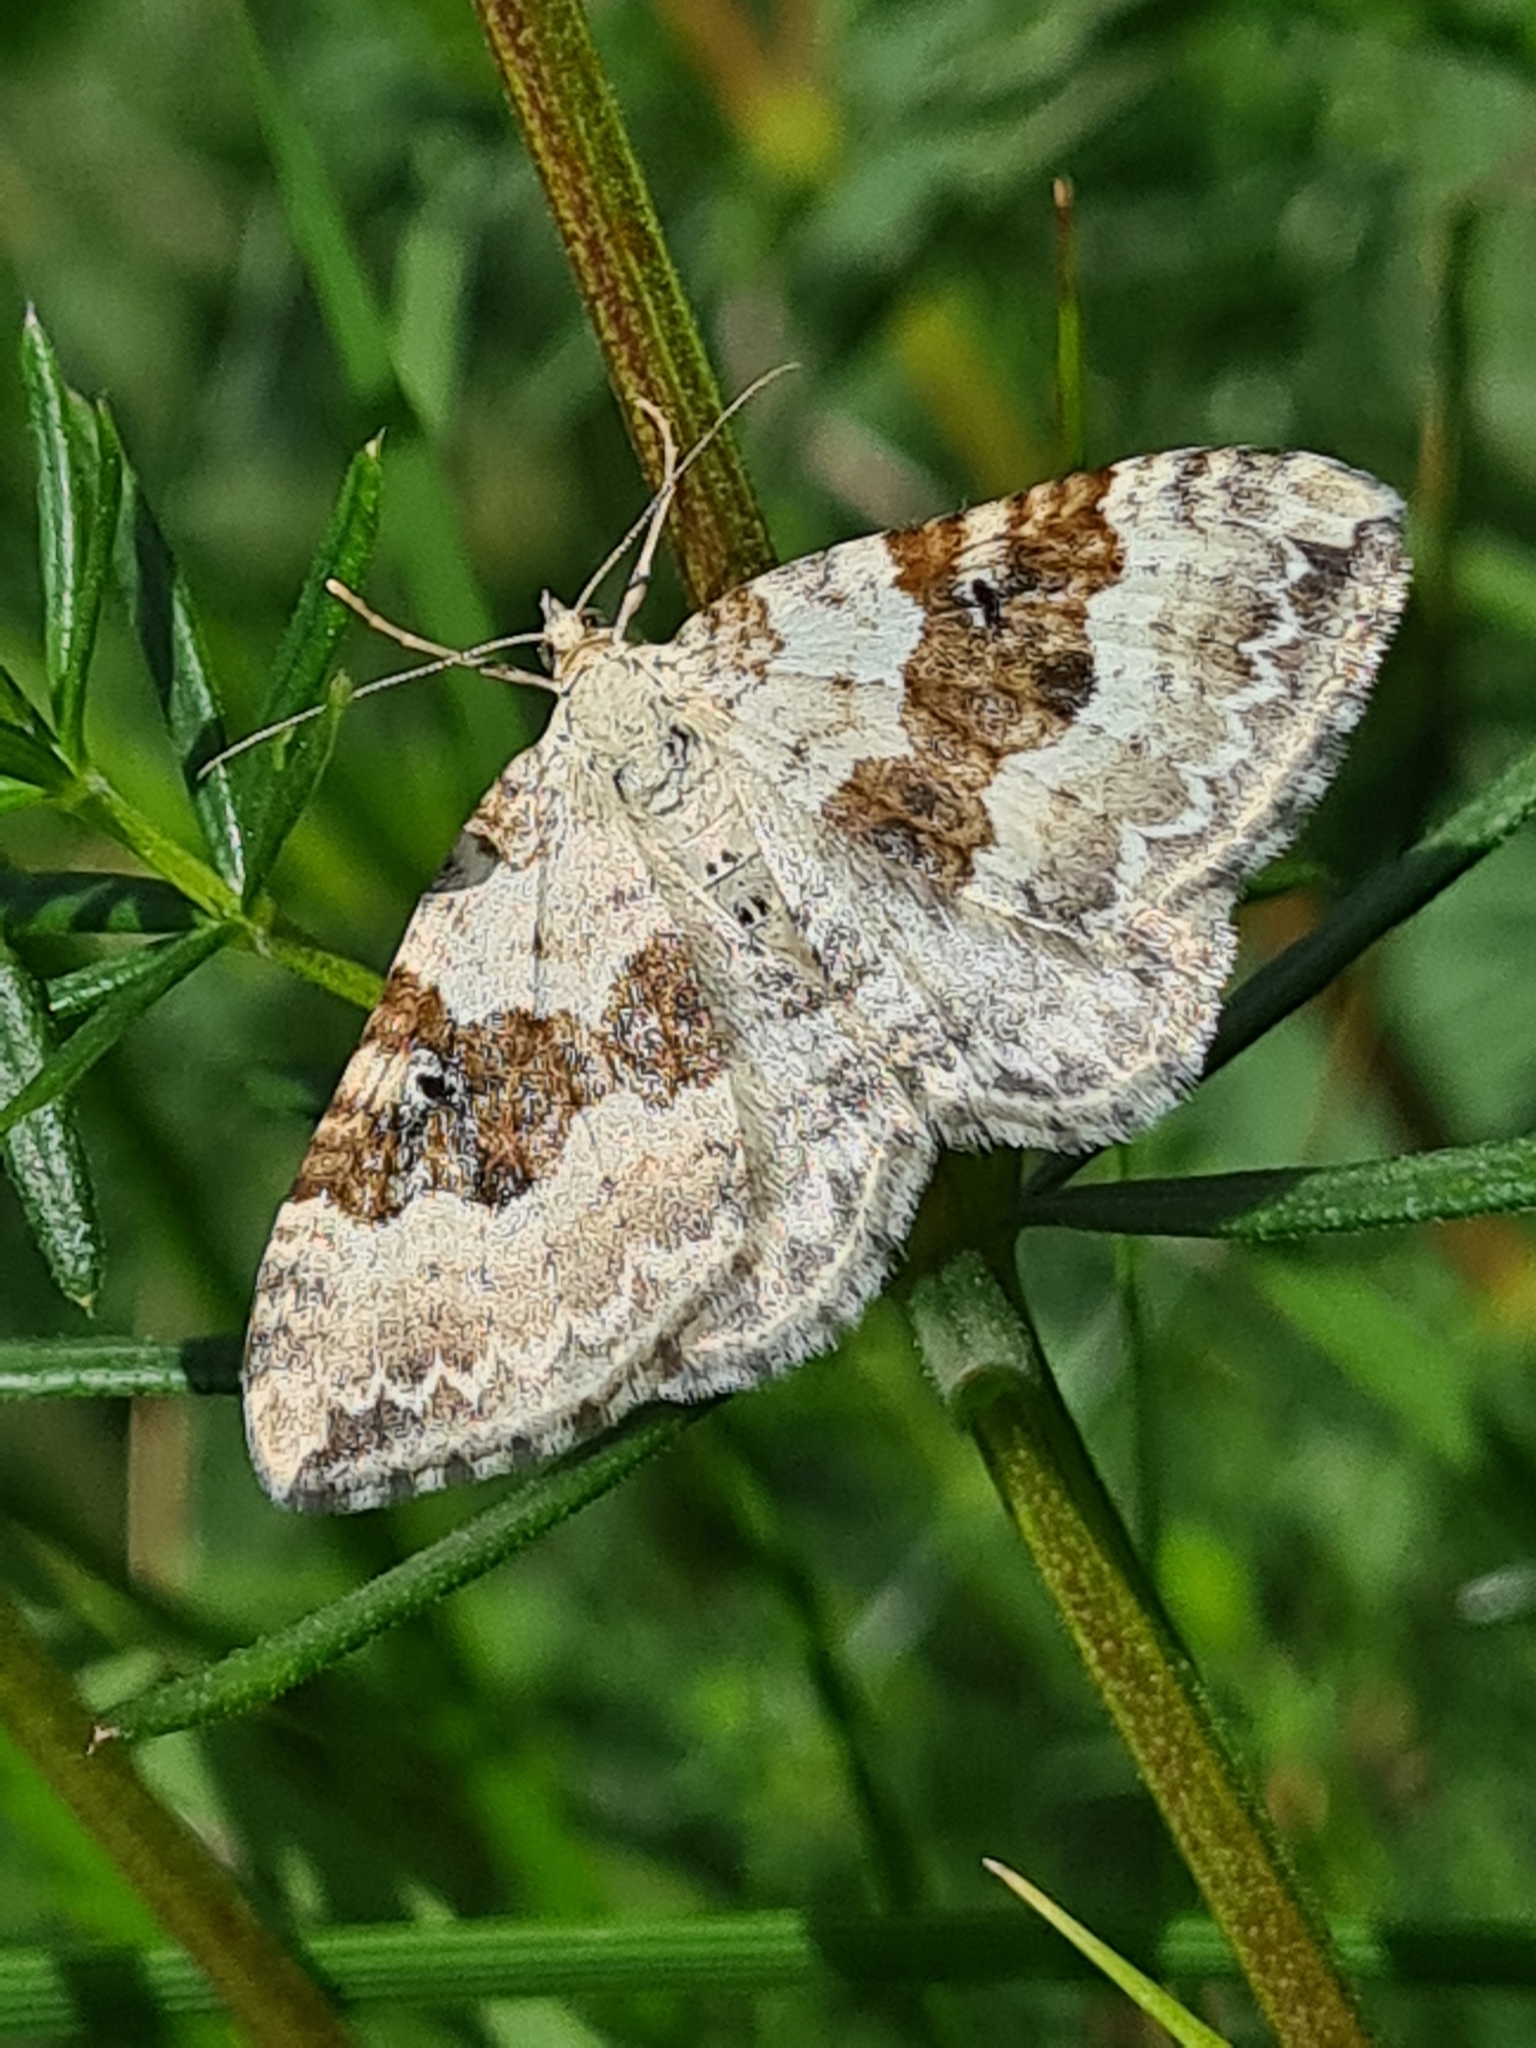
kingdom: Animalia
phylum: Arthropoda
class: Insecta
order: Lepidoptera
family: Geometridae
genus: Xanthorhoe
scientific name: Xanthorhoe montanata
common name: Silver-ground carpet
